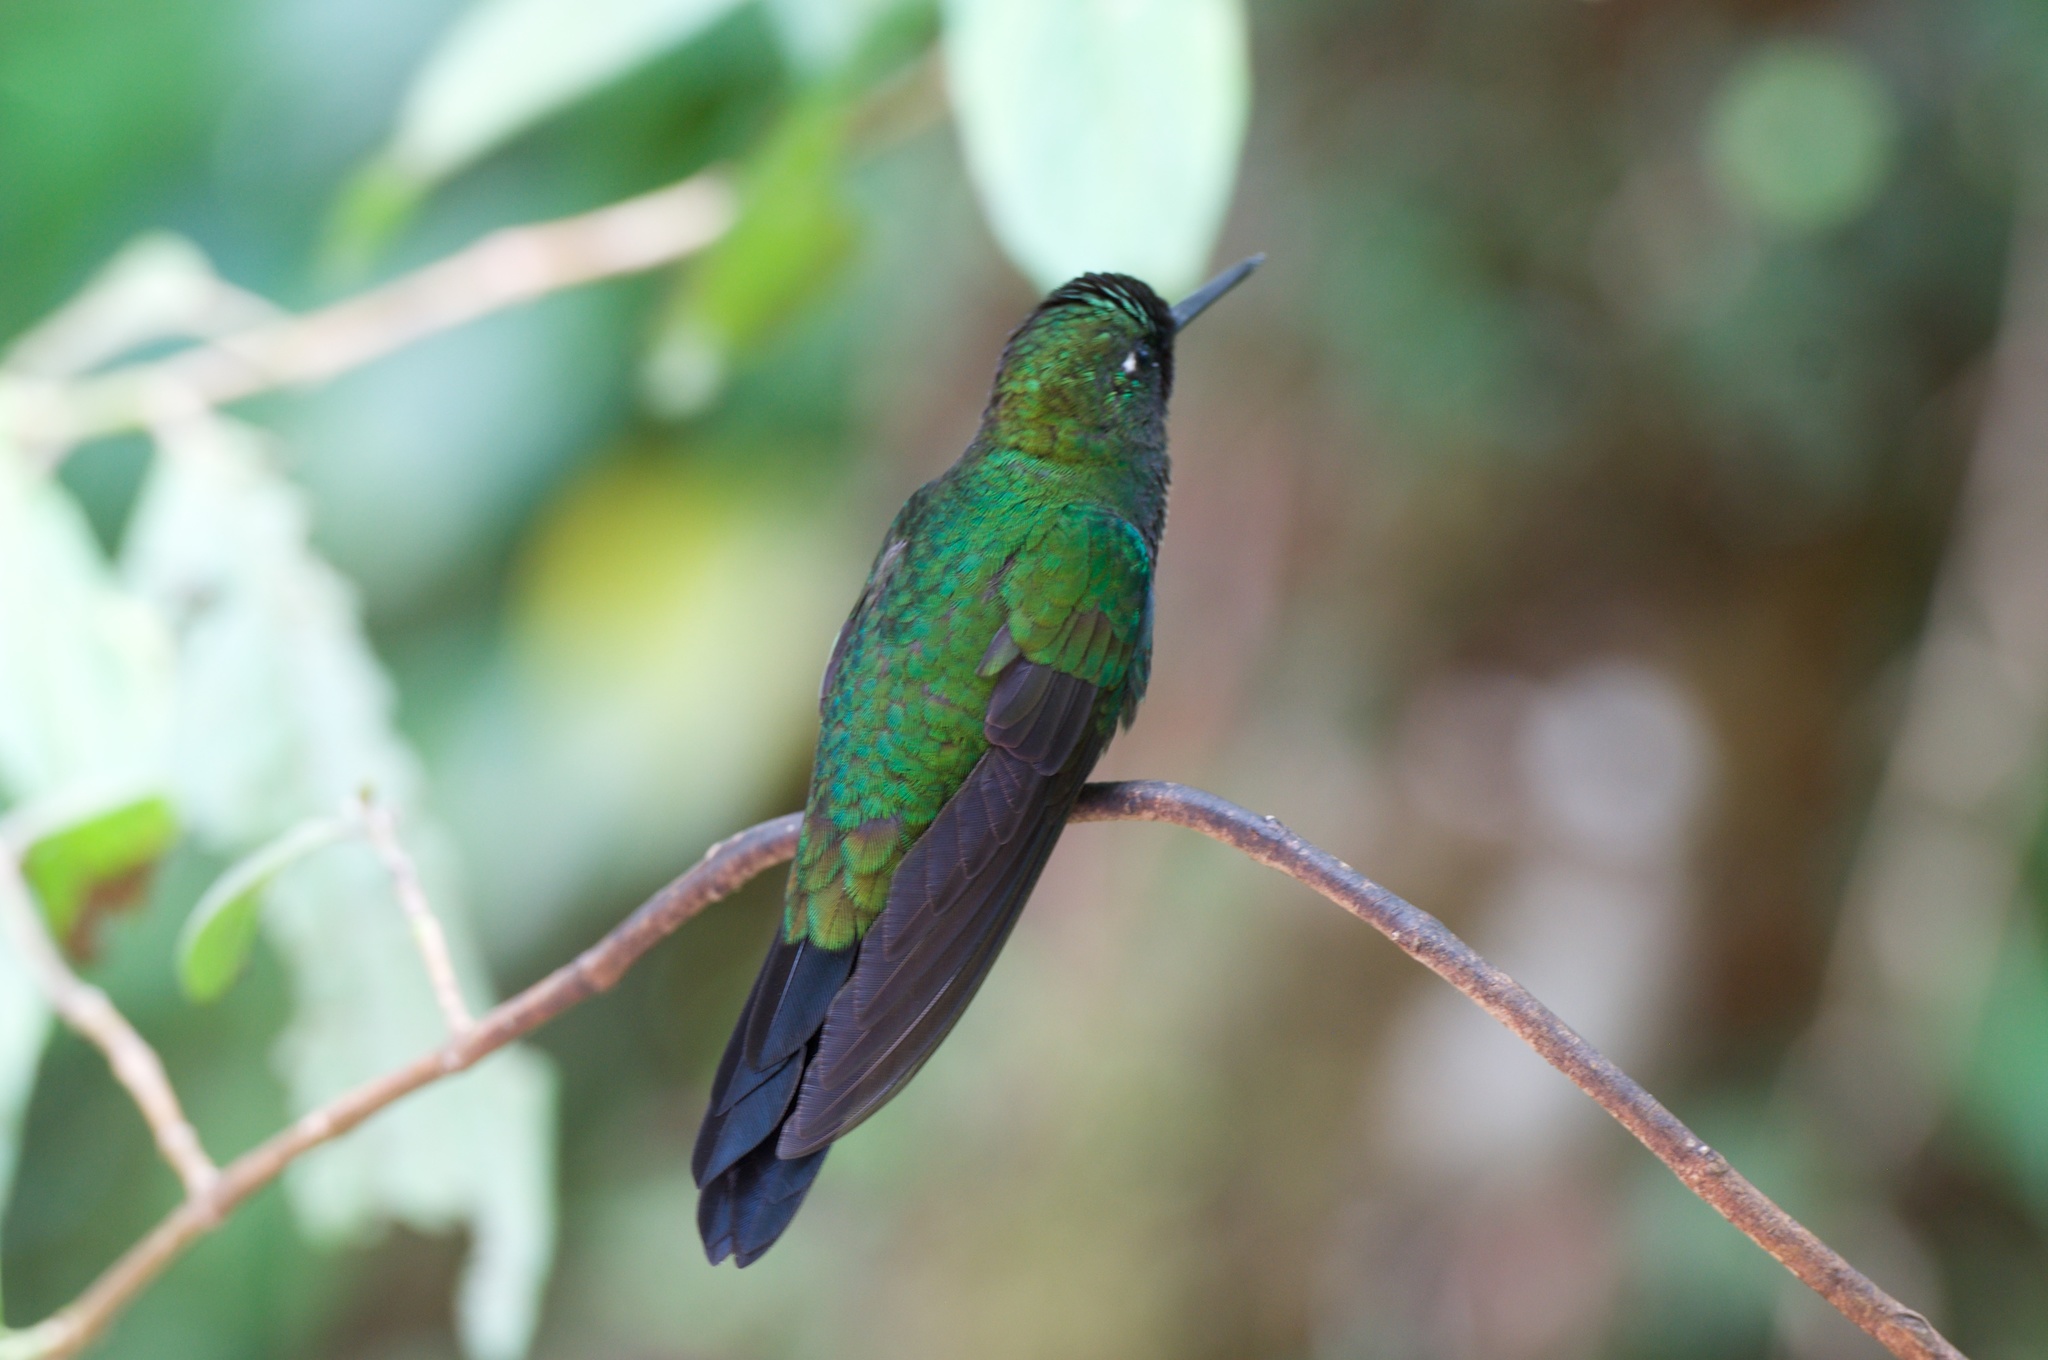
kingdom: Animalia
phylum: Chordata
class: Aves
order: Apodiformes
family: Trochilidae
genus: Heliodoxa
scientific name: Heliodoxa jacula
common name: Green-crowned brilliant
